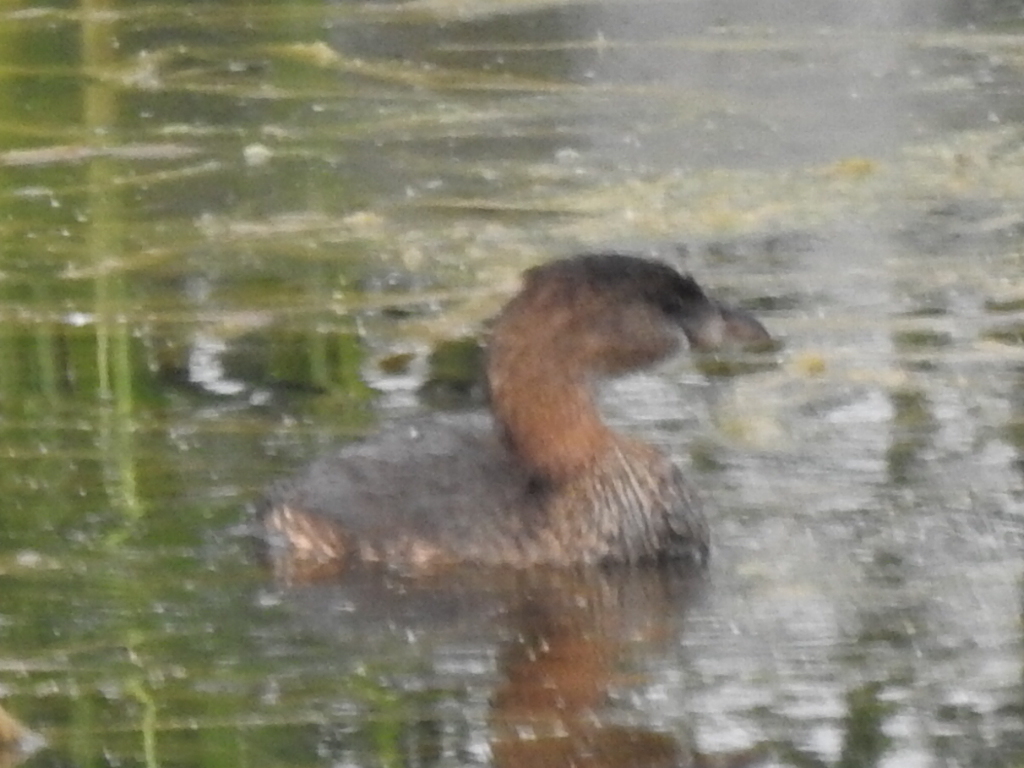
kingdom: Animalia
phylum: Chordata
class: Aves
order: Podicipediformes
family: Podicipedidae
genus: Podilymbus
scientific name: Podilymbus podiceps
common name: Pied-billed grebe
